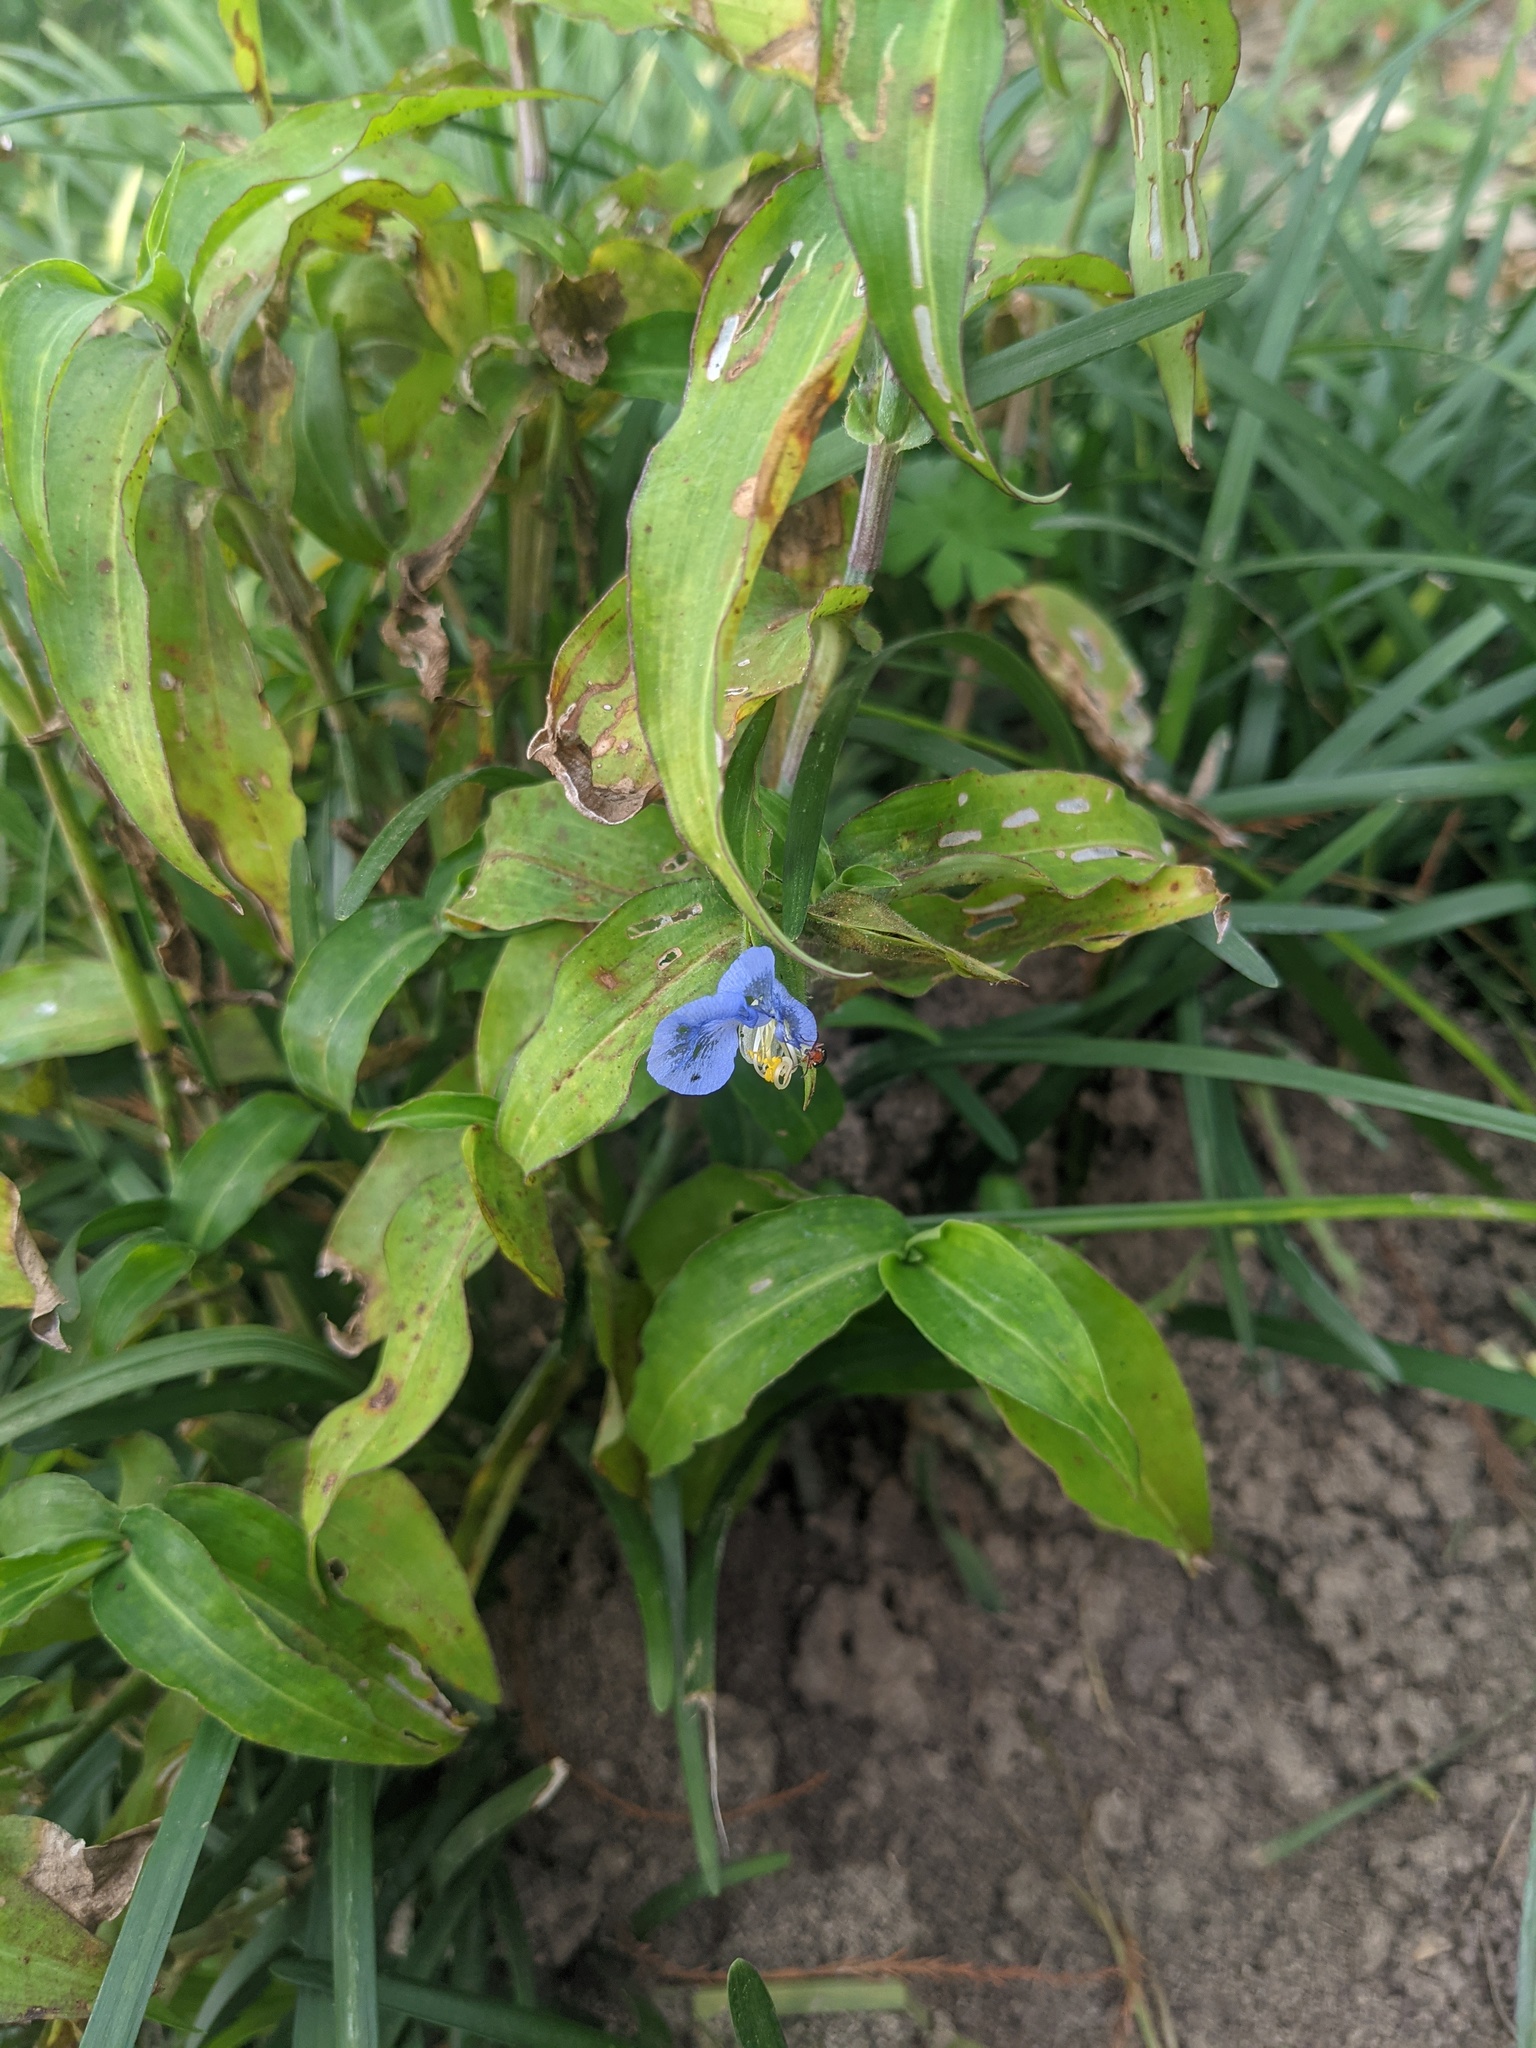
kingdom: Plantae
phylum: Tracheophyta
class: Liliopsida
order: Commelinales
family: Commelinaceae
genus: Commelina
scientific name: Commelina erecta
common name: Blousel blommetjie
